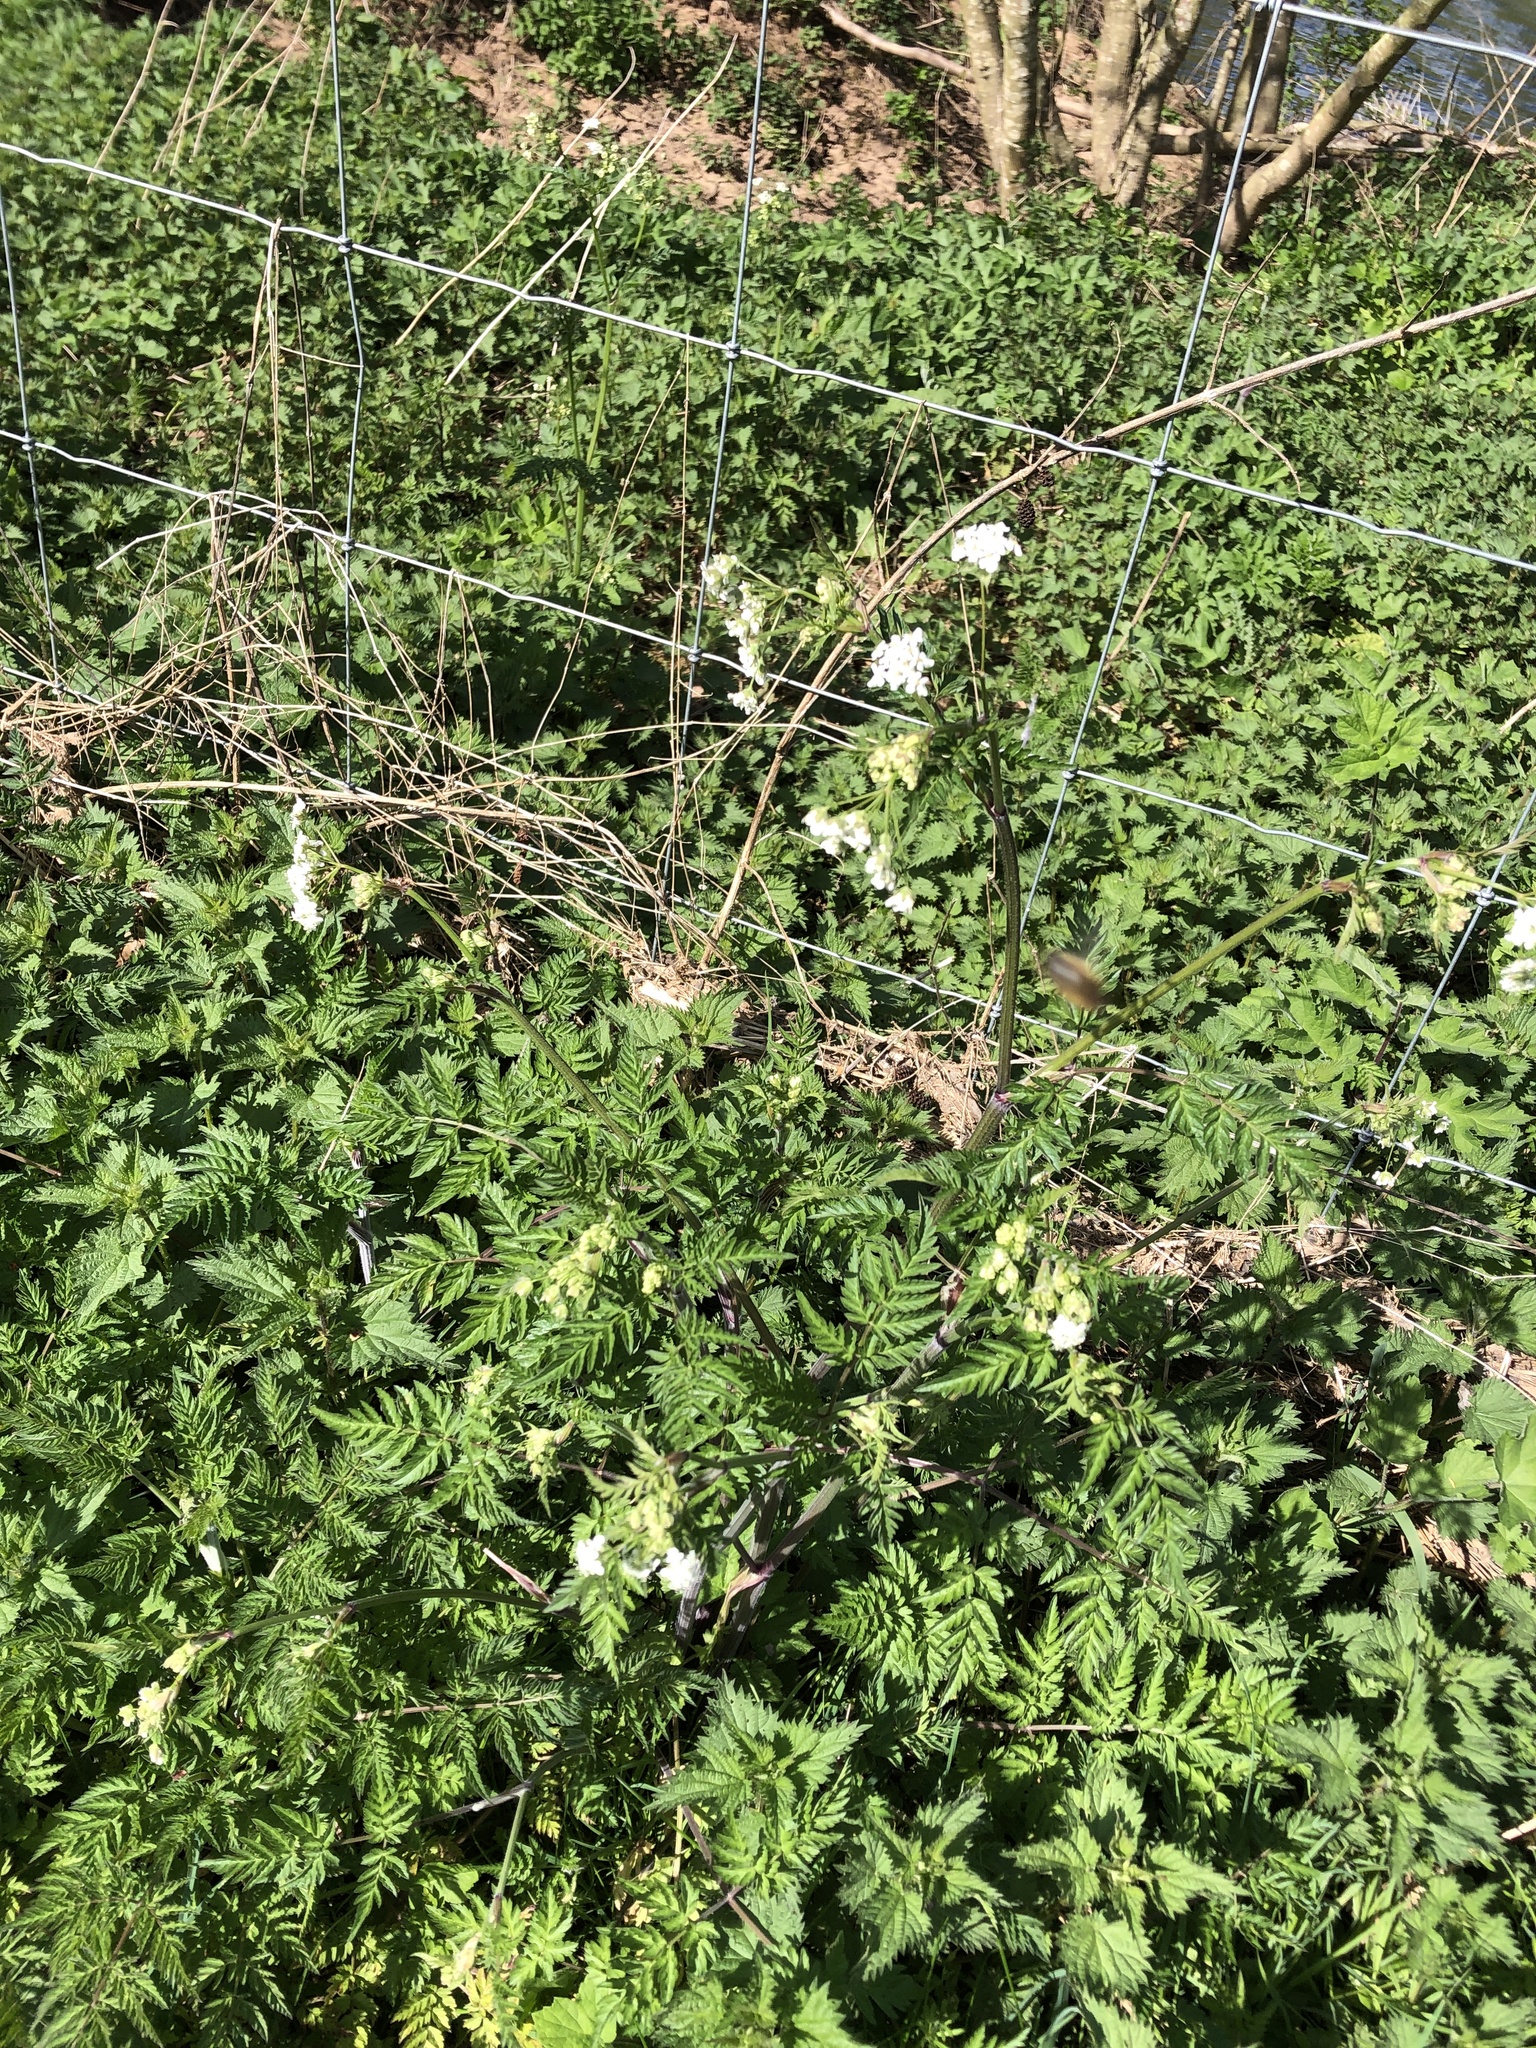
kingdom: Plantae
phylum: Tracheophyta
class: Magnoliopsida
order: Apiales
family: Apiaceae
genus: Anthriscus
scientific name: Anthriscus sylvestris
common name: Cow parsley
